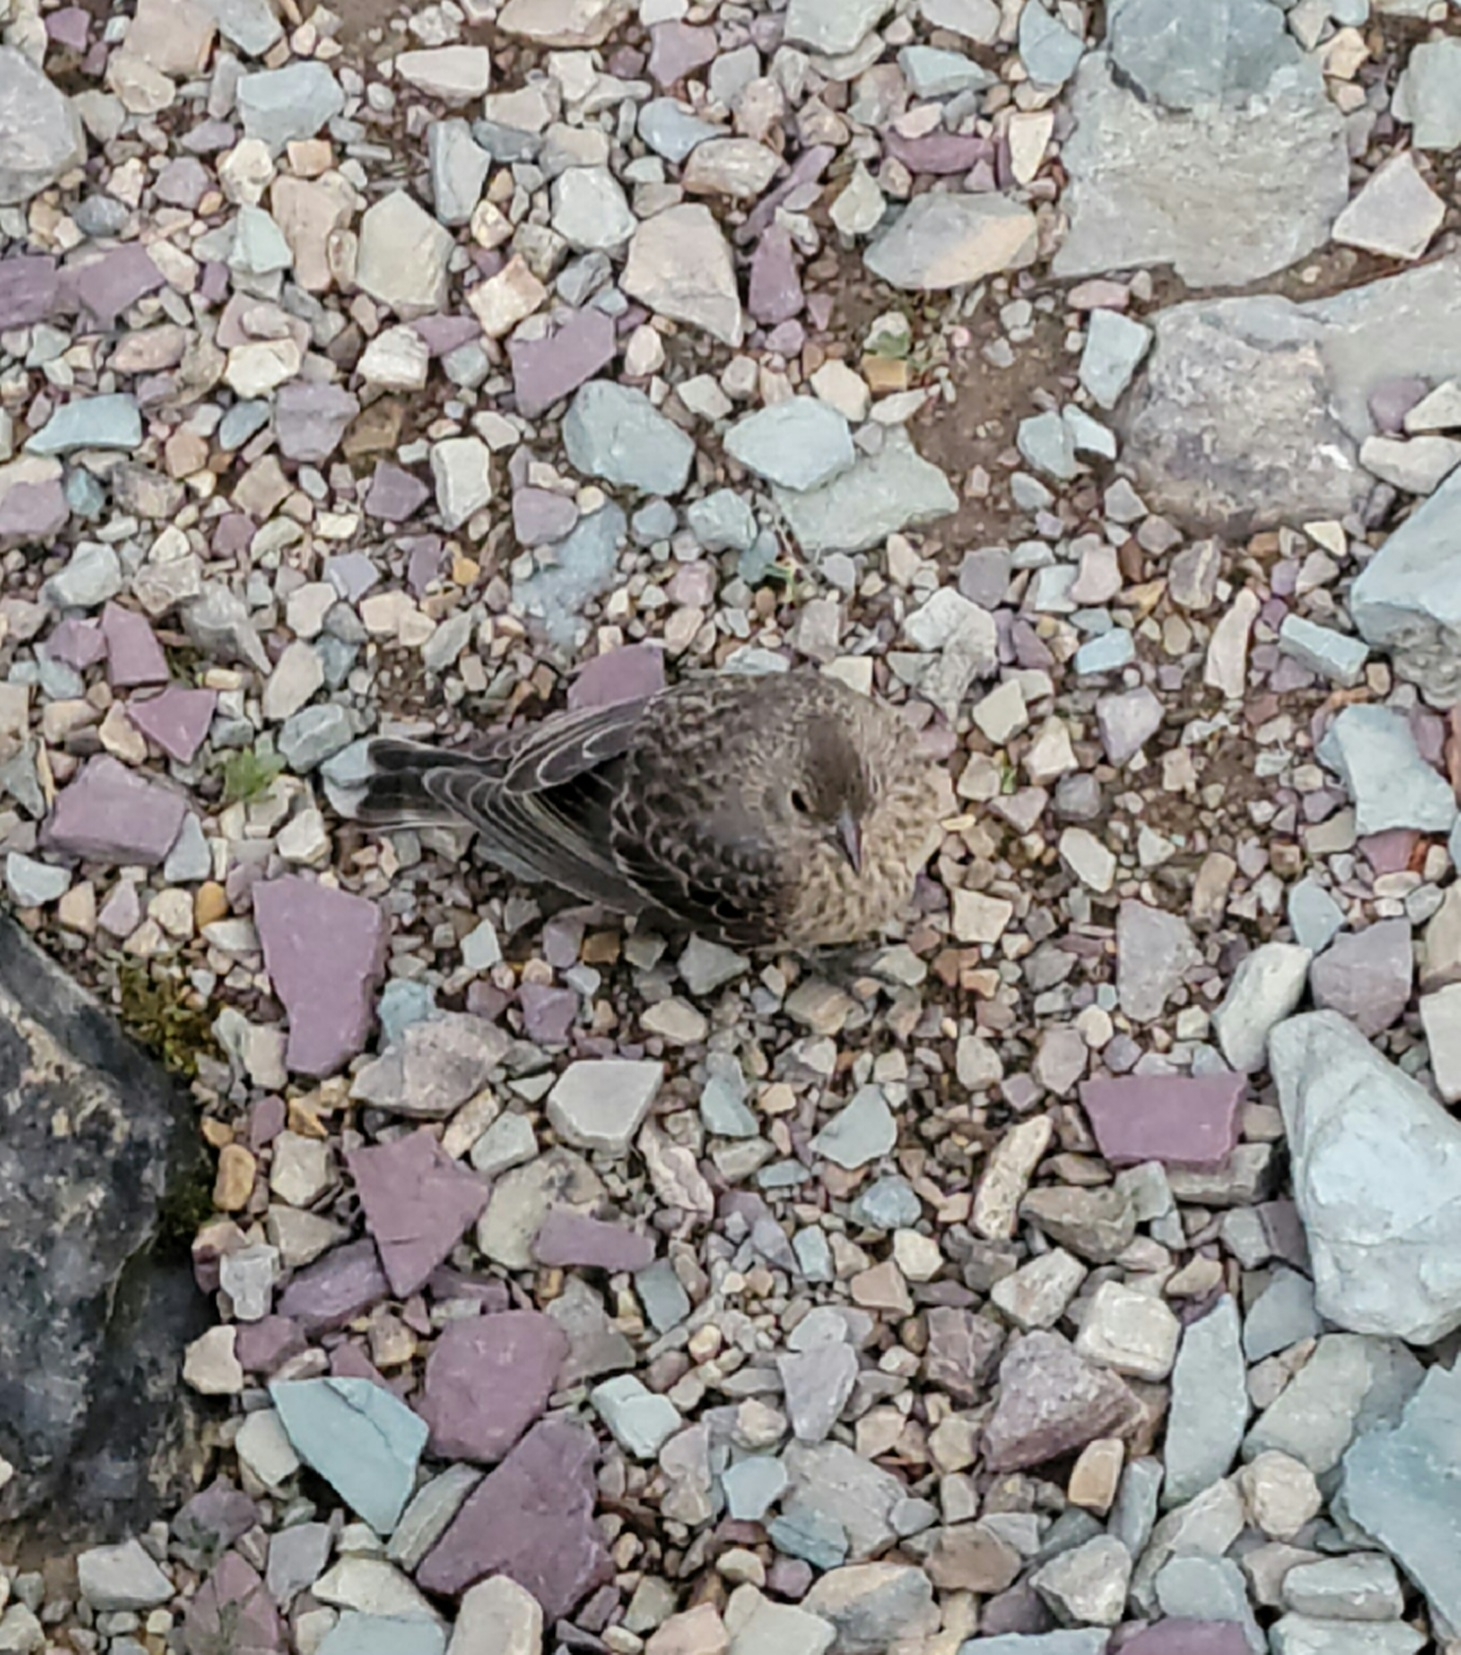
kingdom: Animalia
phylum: Chordata
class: Aves
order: Passeriformes
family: Icteridae
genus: Molothrus
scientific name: Molothrus ater
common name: Brown-headed cowbird
